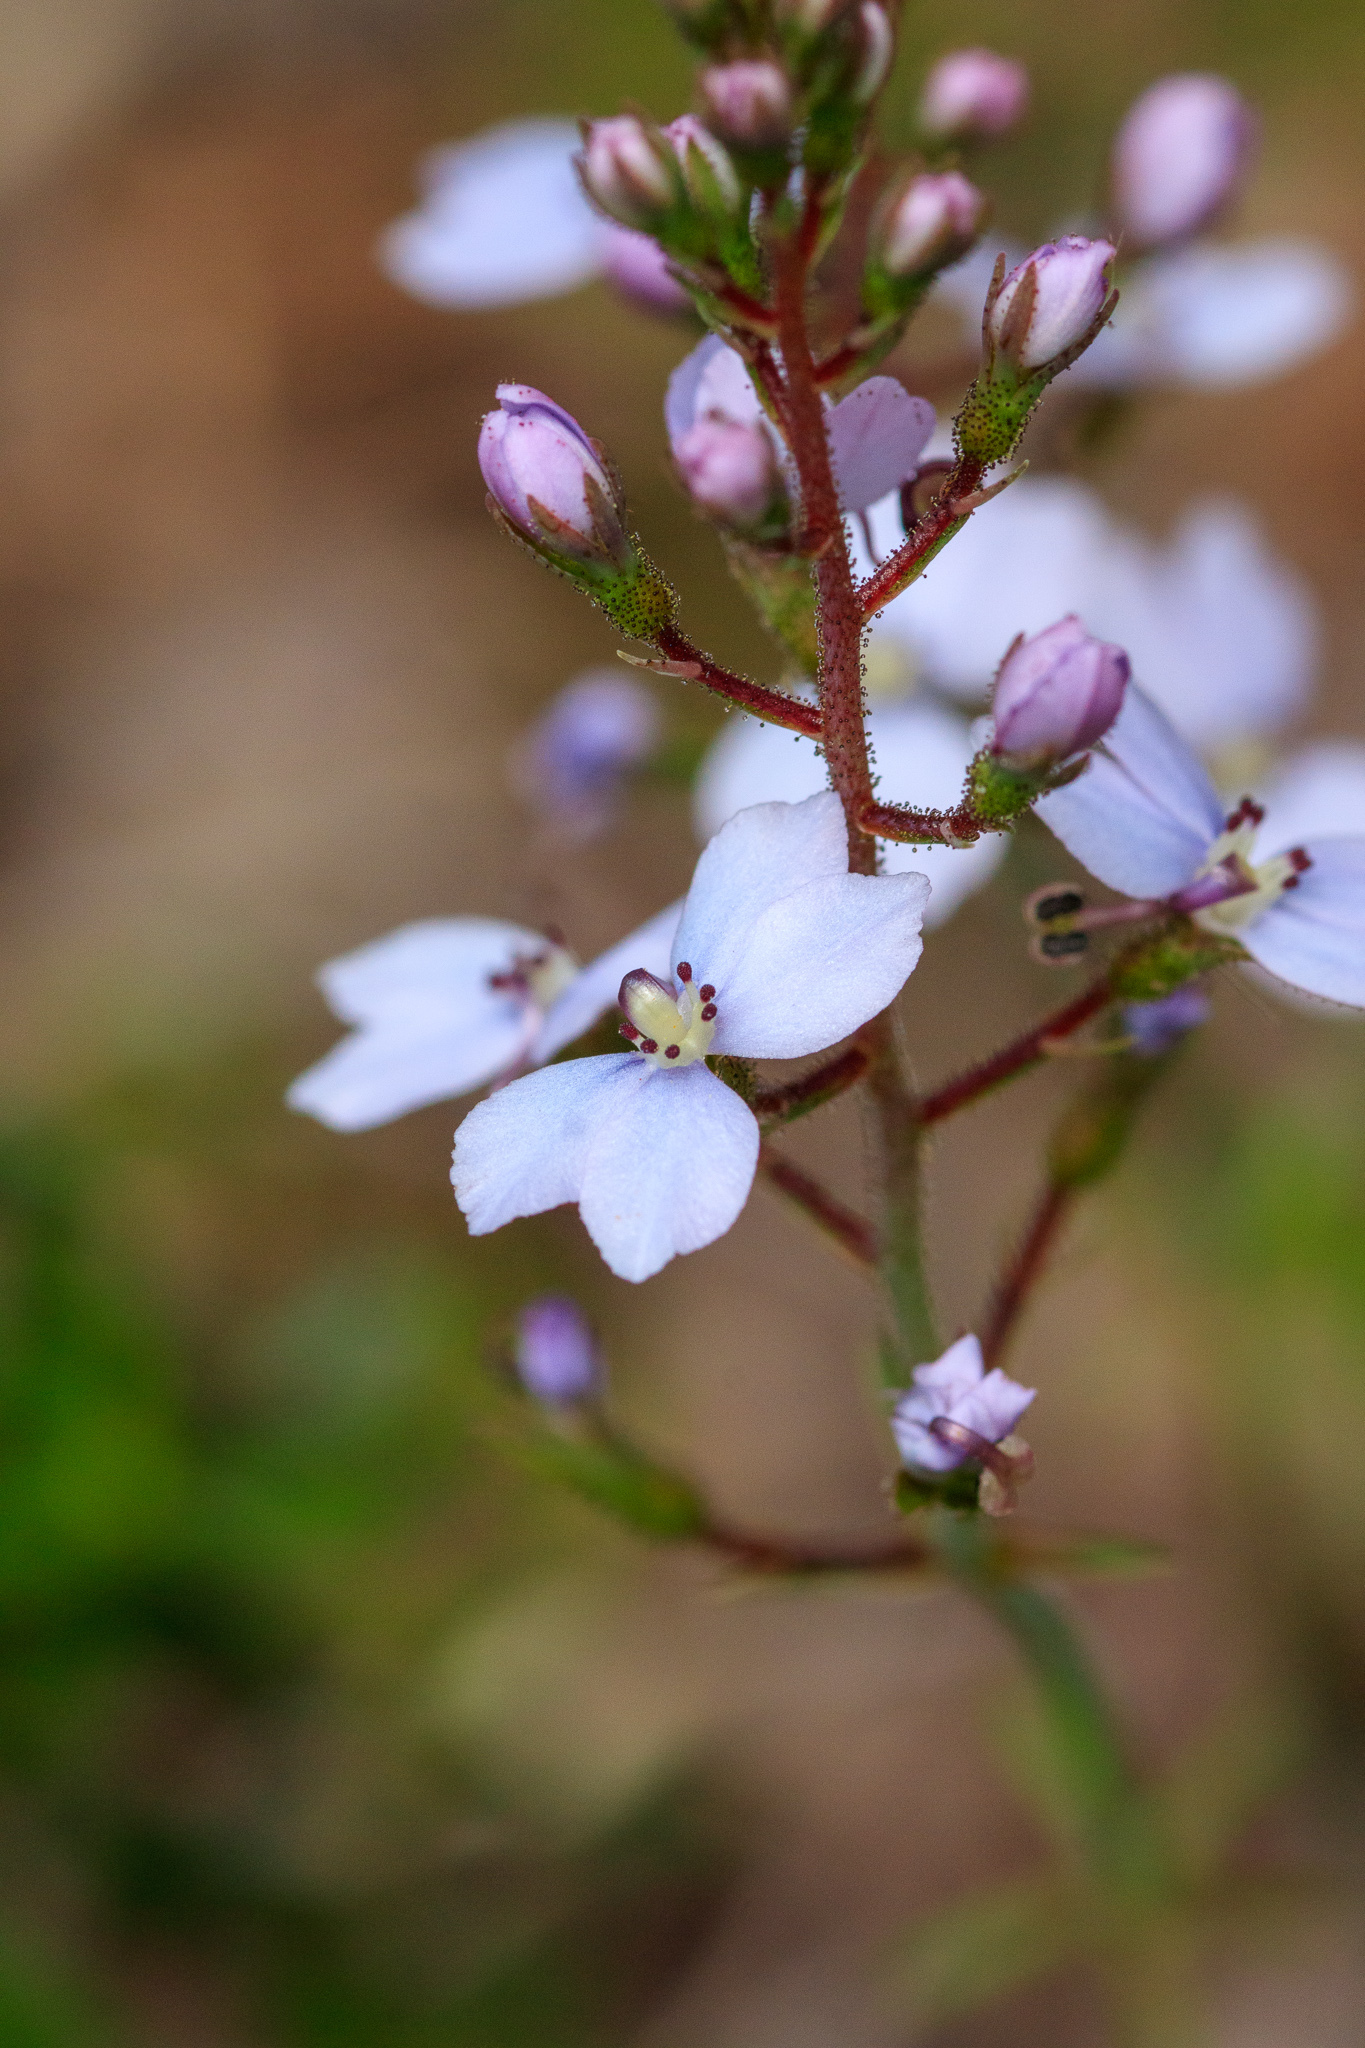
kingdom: Plantae
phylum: Tracheophyta
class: Magnoliopsida
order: Asterales
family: Stylidiaceae
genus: Stylidium
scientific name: Stylidium amoenum
